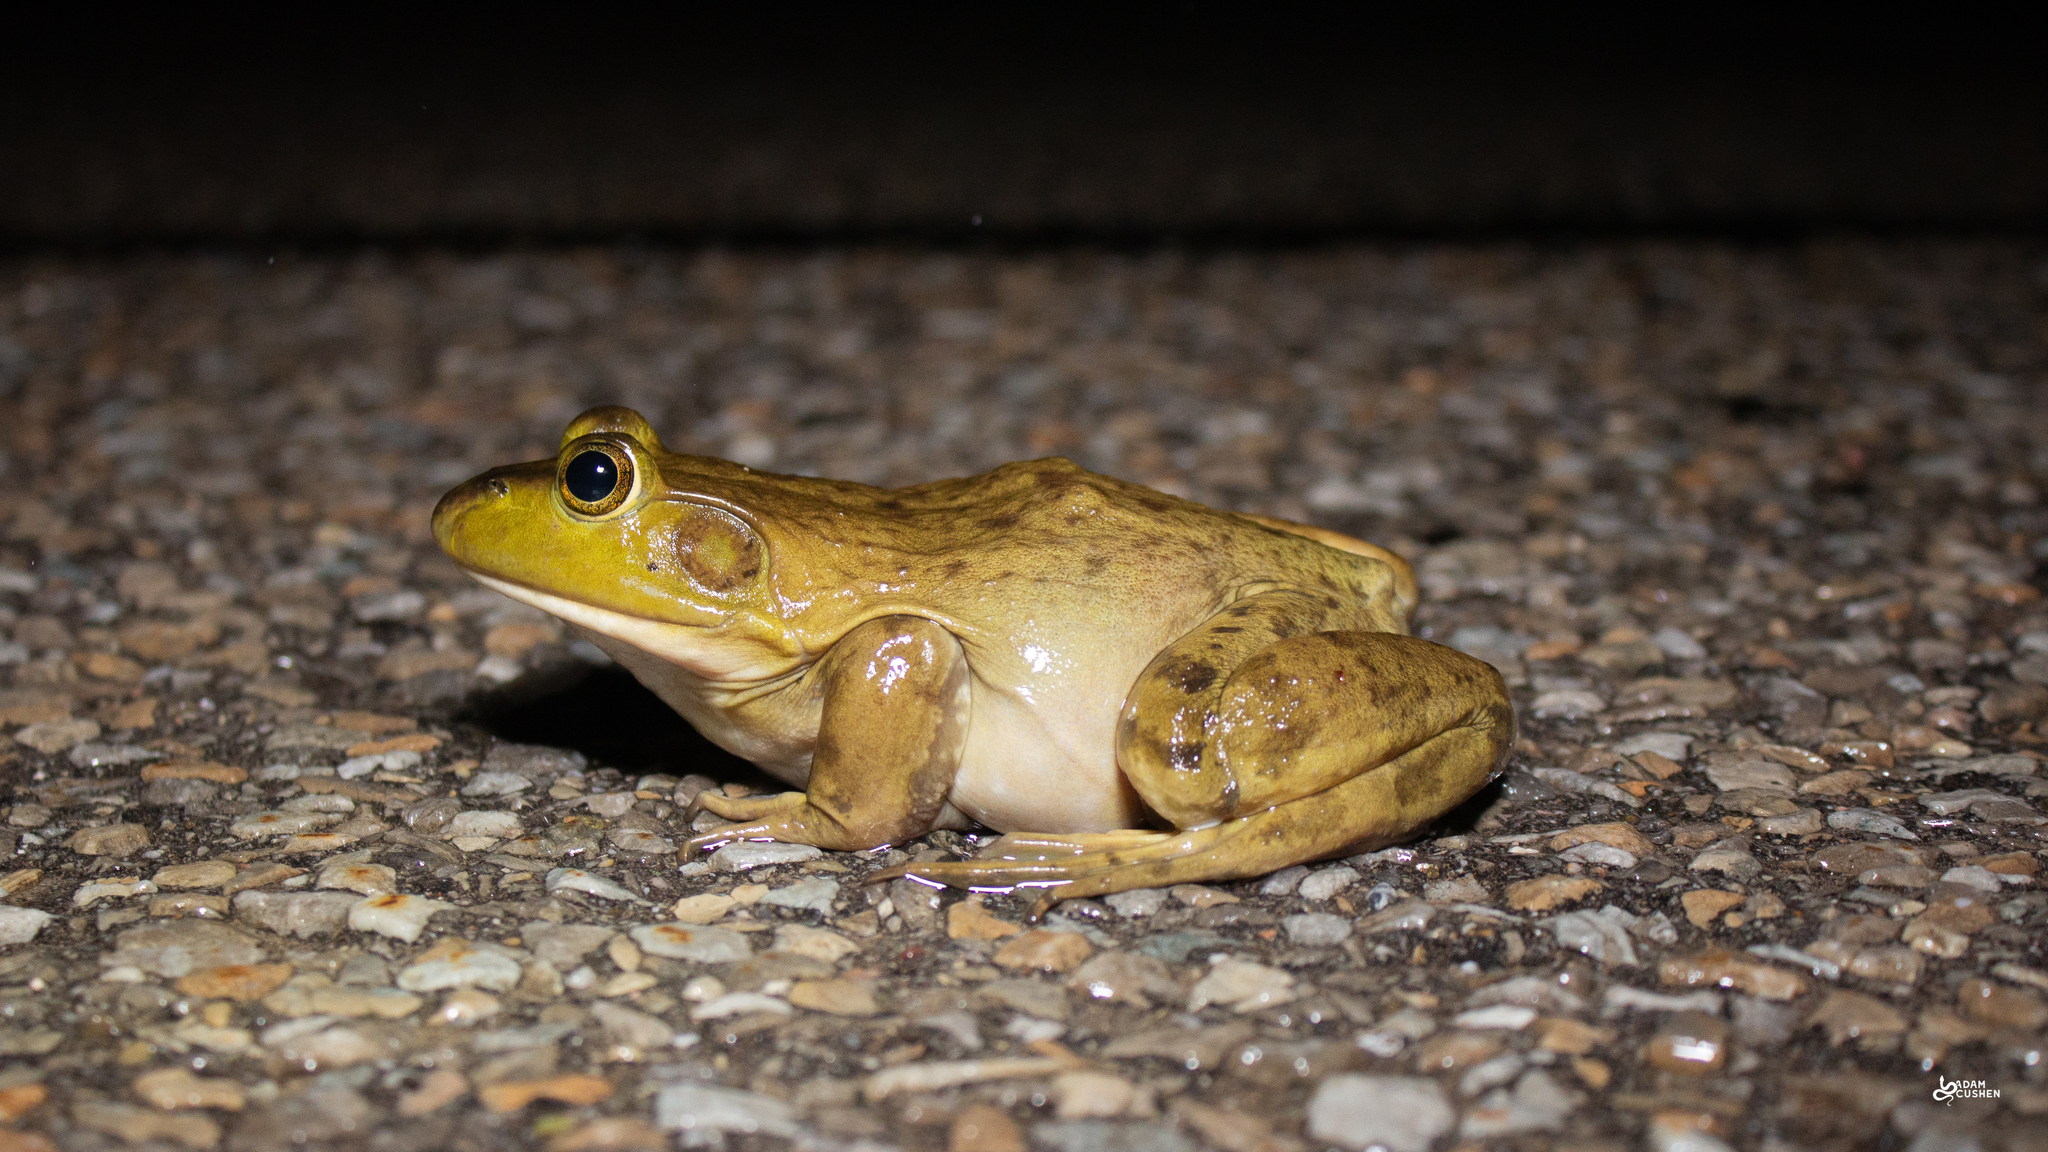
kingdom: Animalia
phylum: Chordata
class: Amphibia
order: Anura
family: Ranidae
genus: Lithobates
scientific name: Lithobates catesbeianus
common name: American bullfrog
